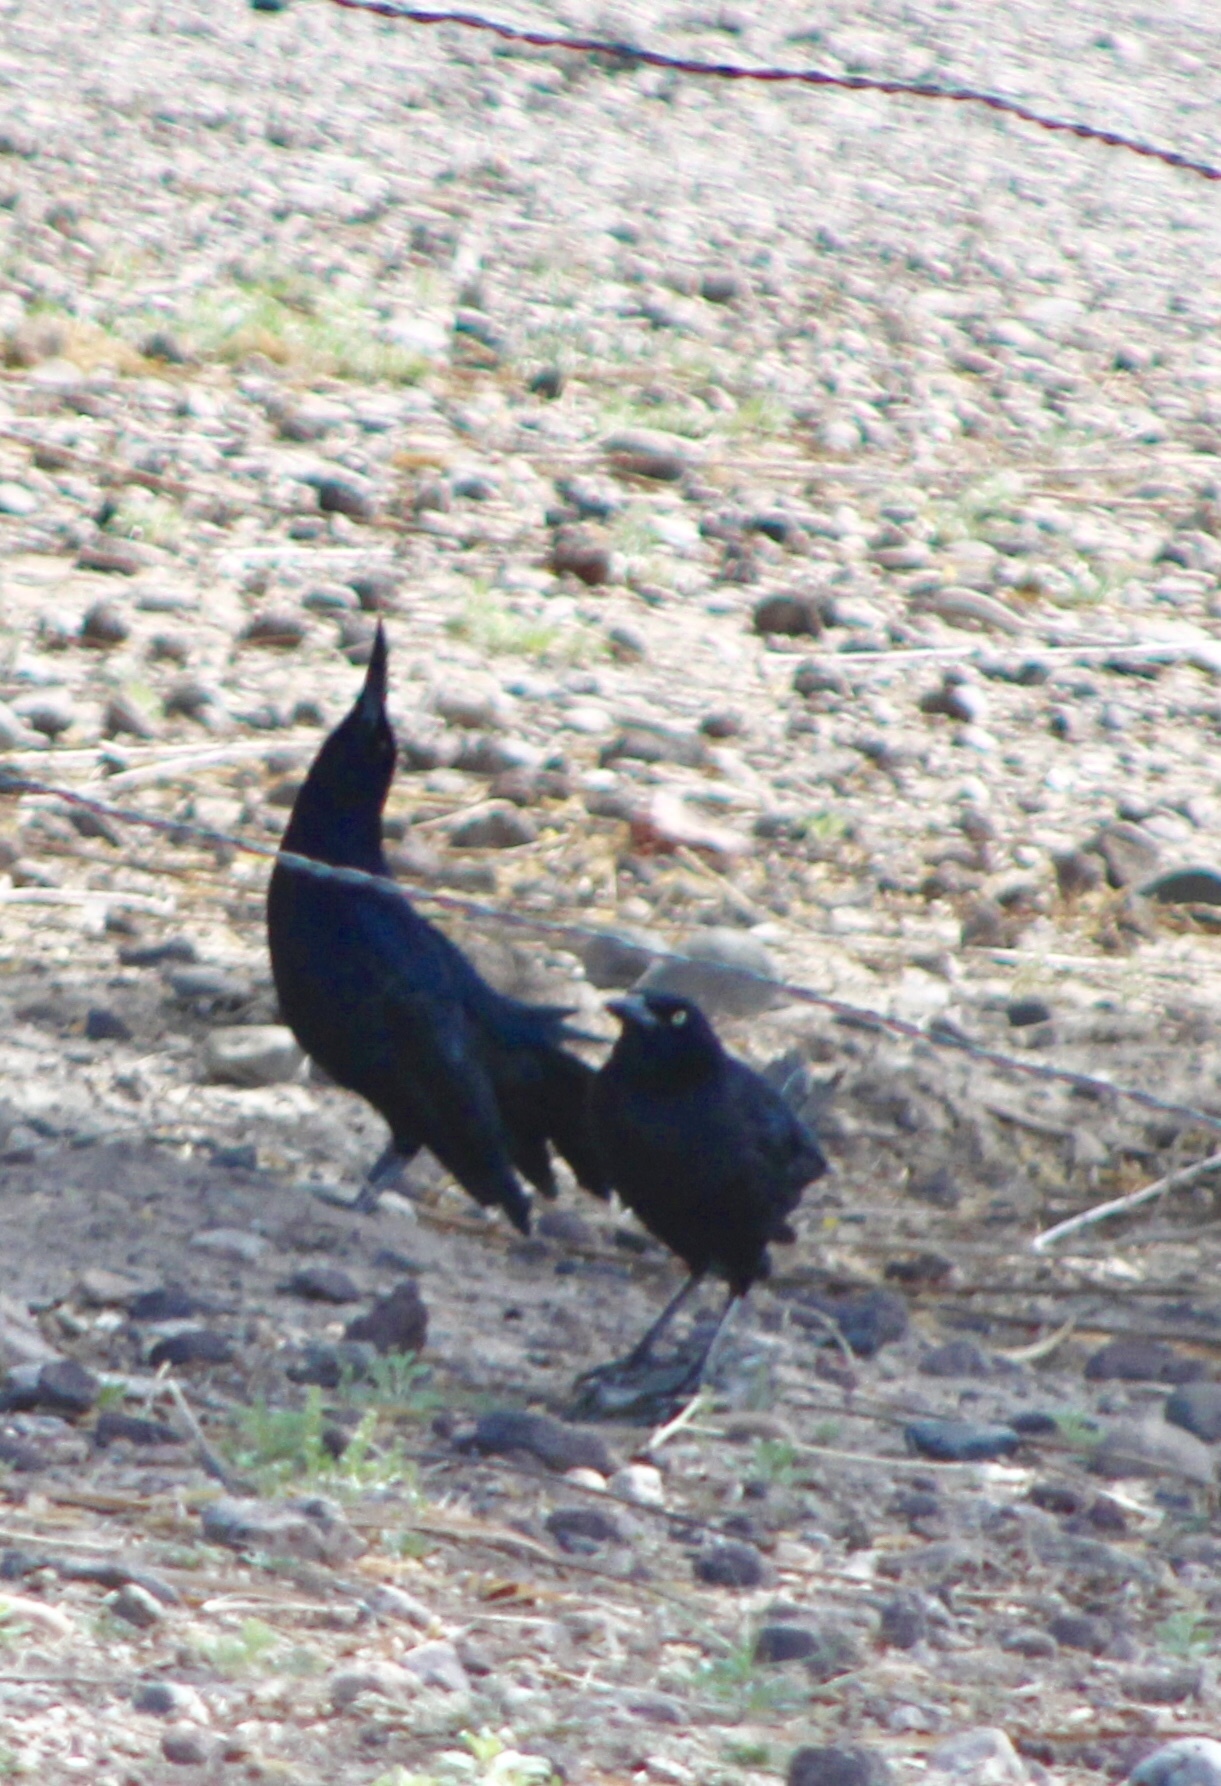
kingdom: Animalia
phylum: Chordata
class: Aves
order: Passeriformes
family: Icteridae
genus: Quiscalus
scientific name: Quiscalus mexicanus
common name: Great-tailed grackle
